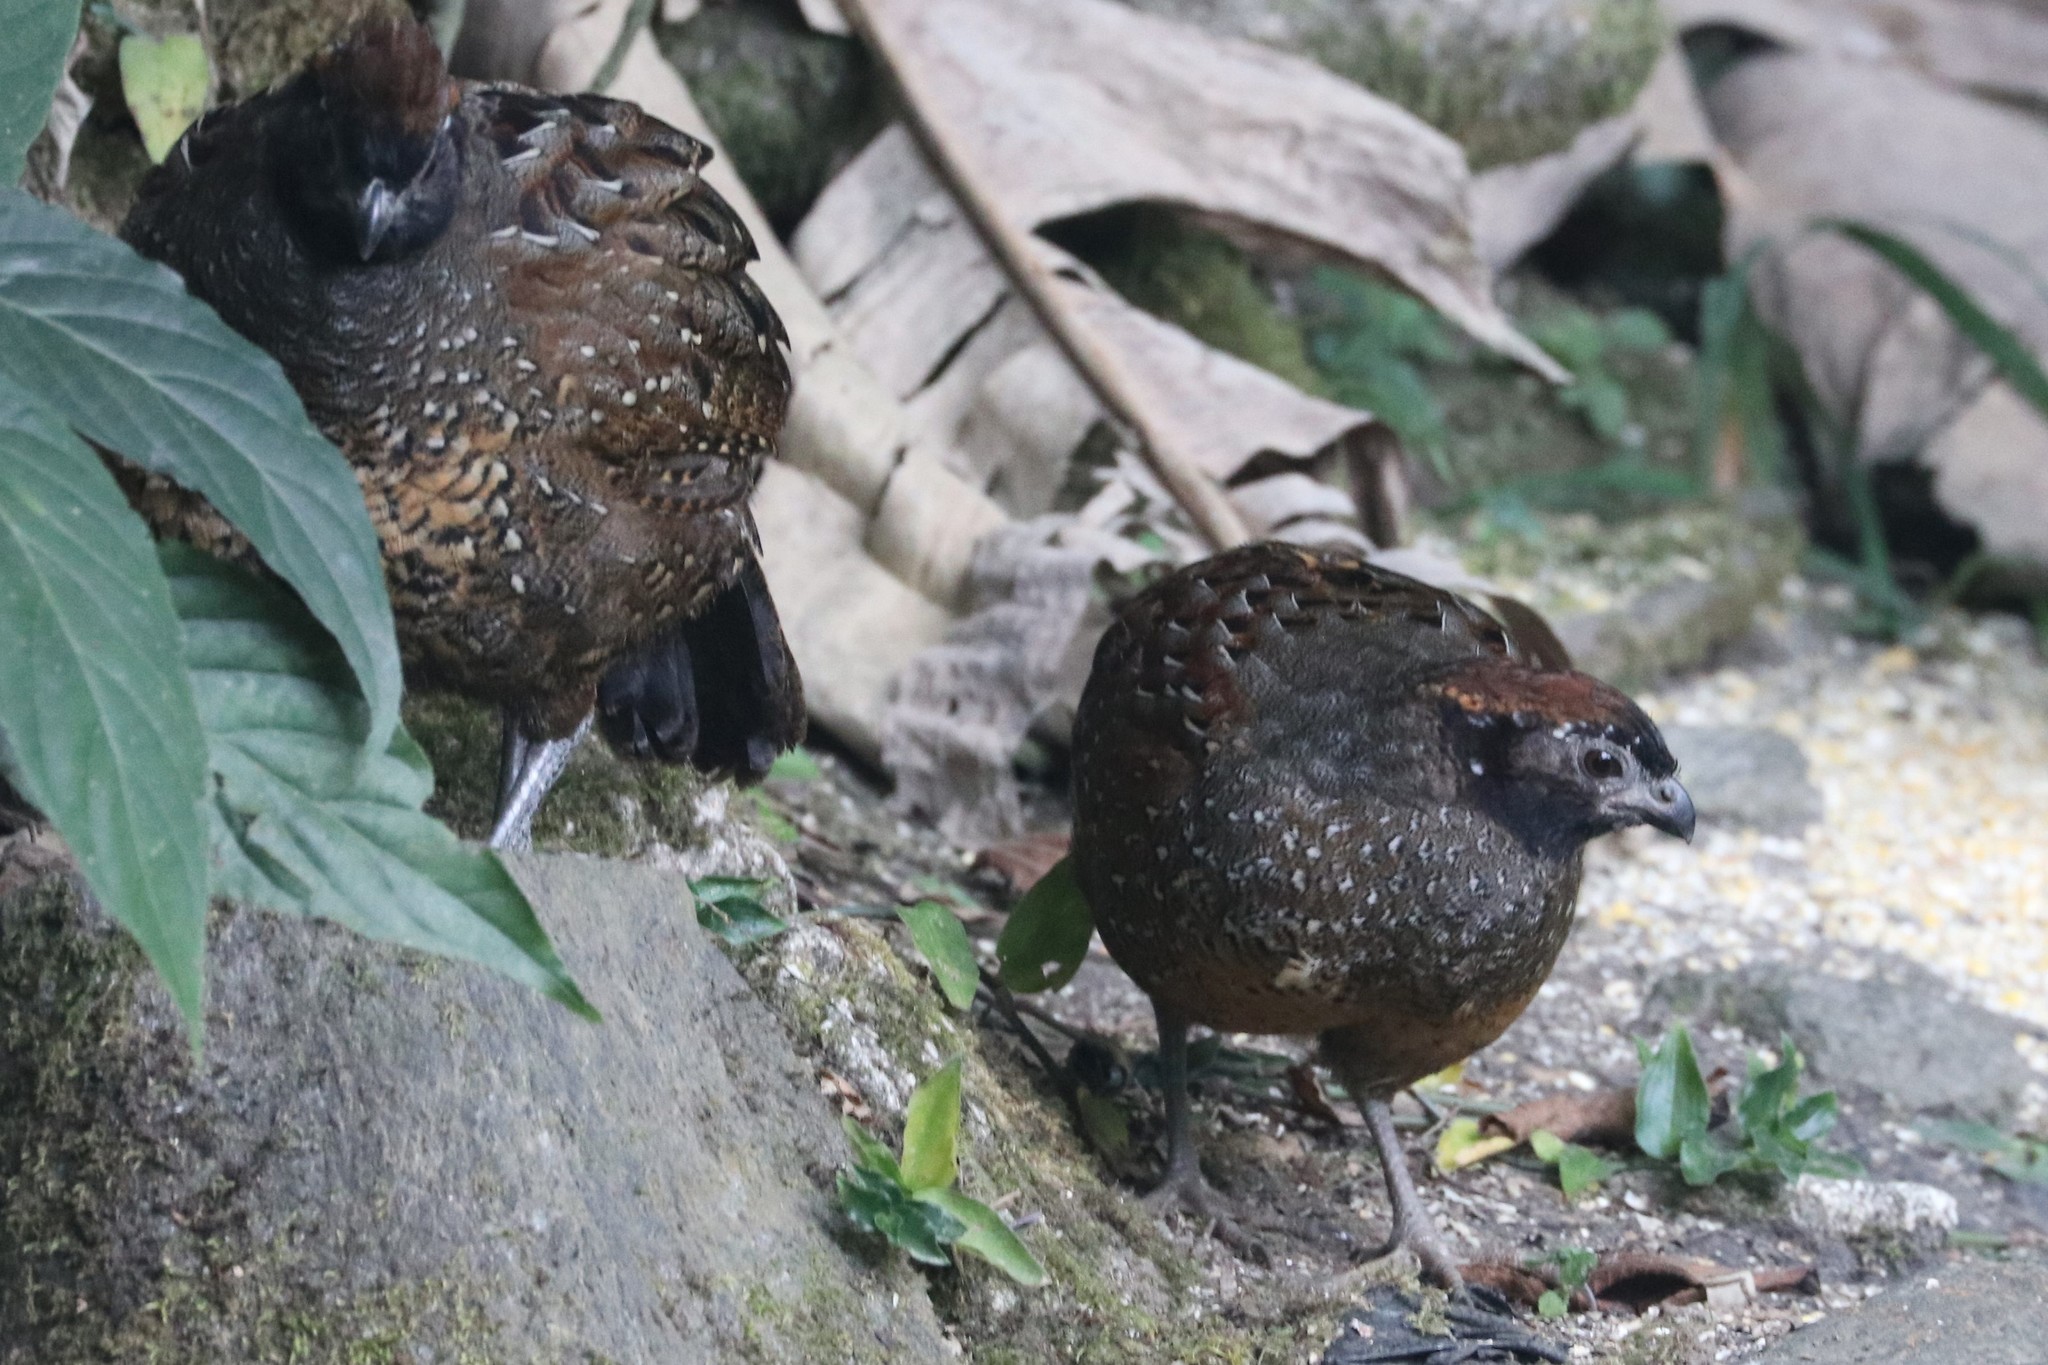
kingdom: Animalia
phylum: Chordata
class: Aves
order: Galliformes
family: Odontophoridae
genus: Odontophorus
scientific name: Odontophorus atrifrons
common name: Black-fronted wood-quail
